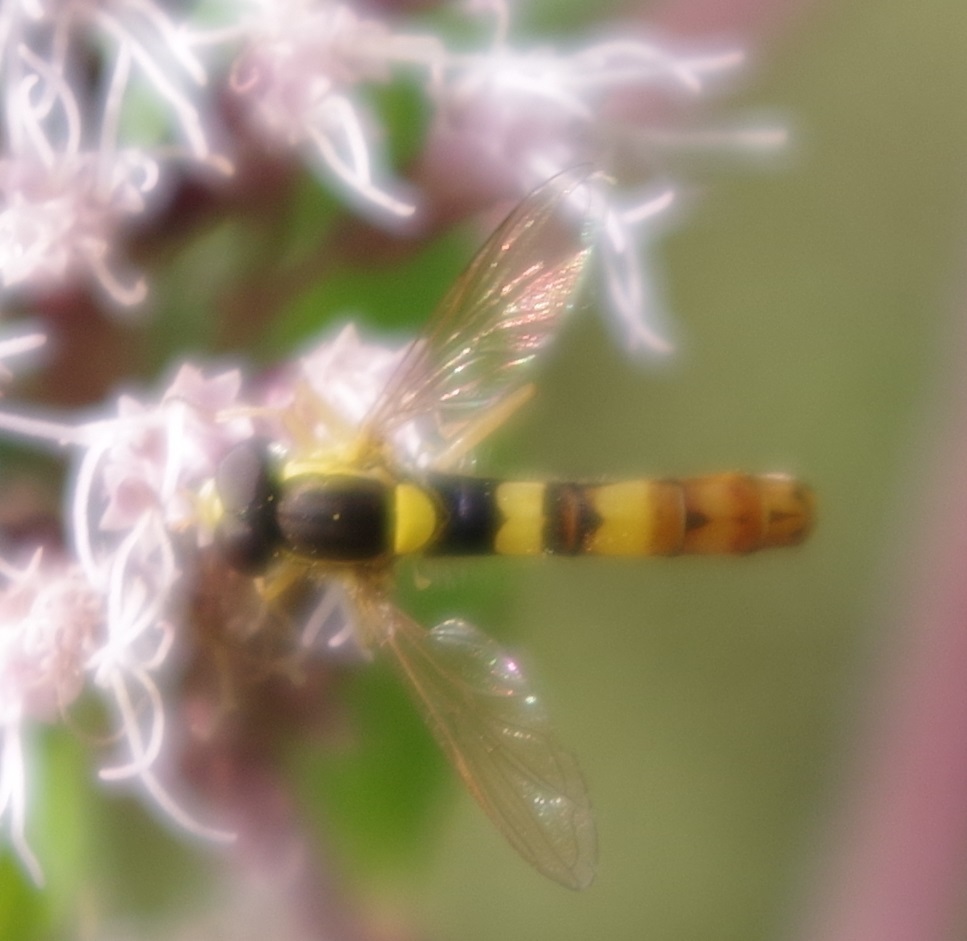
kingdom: Animalia
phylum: Arthropoda
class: Insecta
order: Diptera
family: Syrphidae
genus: Sphaerophoria
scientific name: Sphaerophoria scripta
